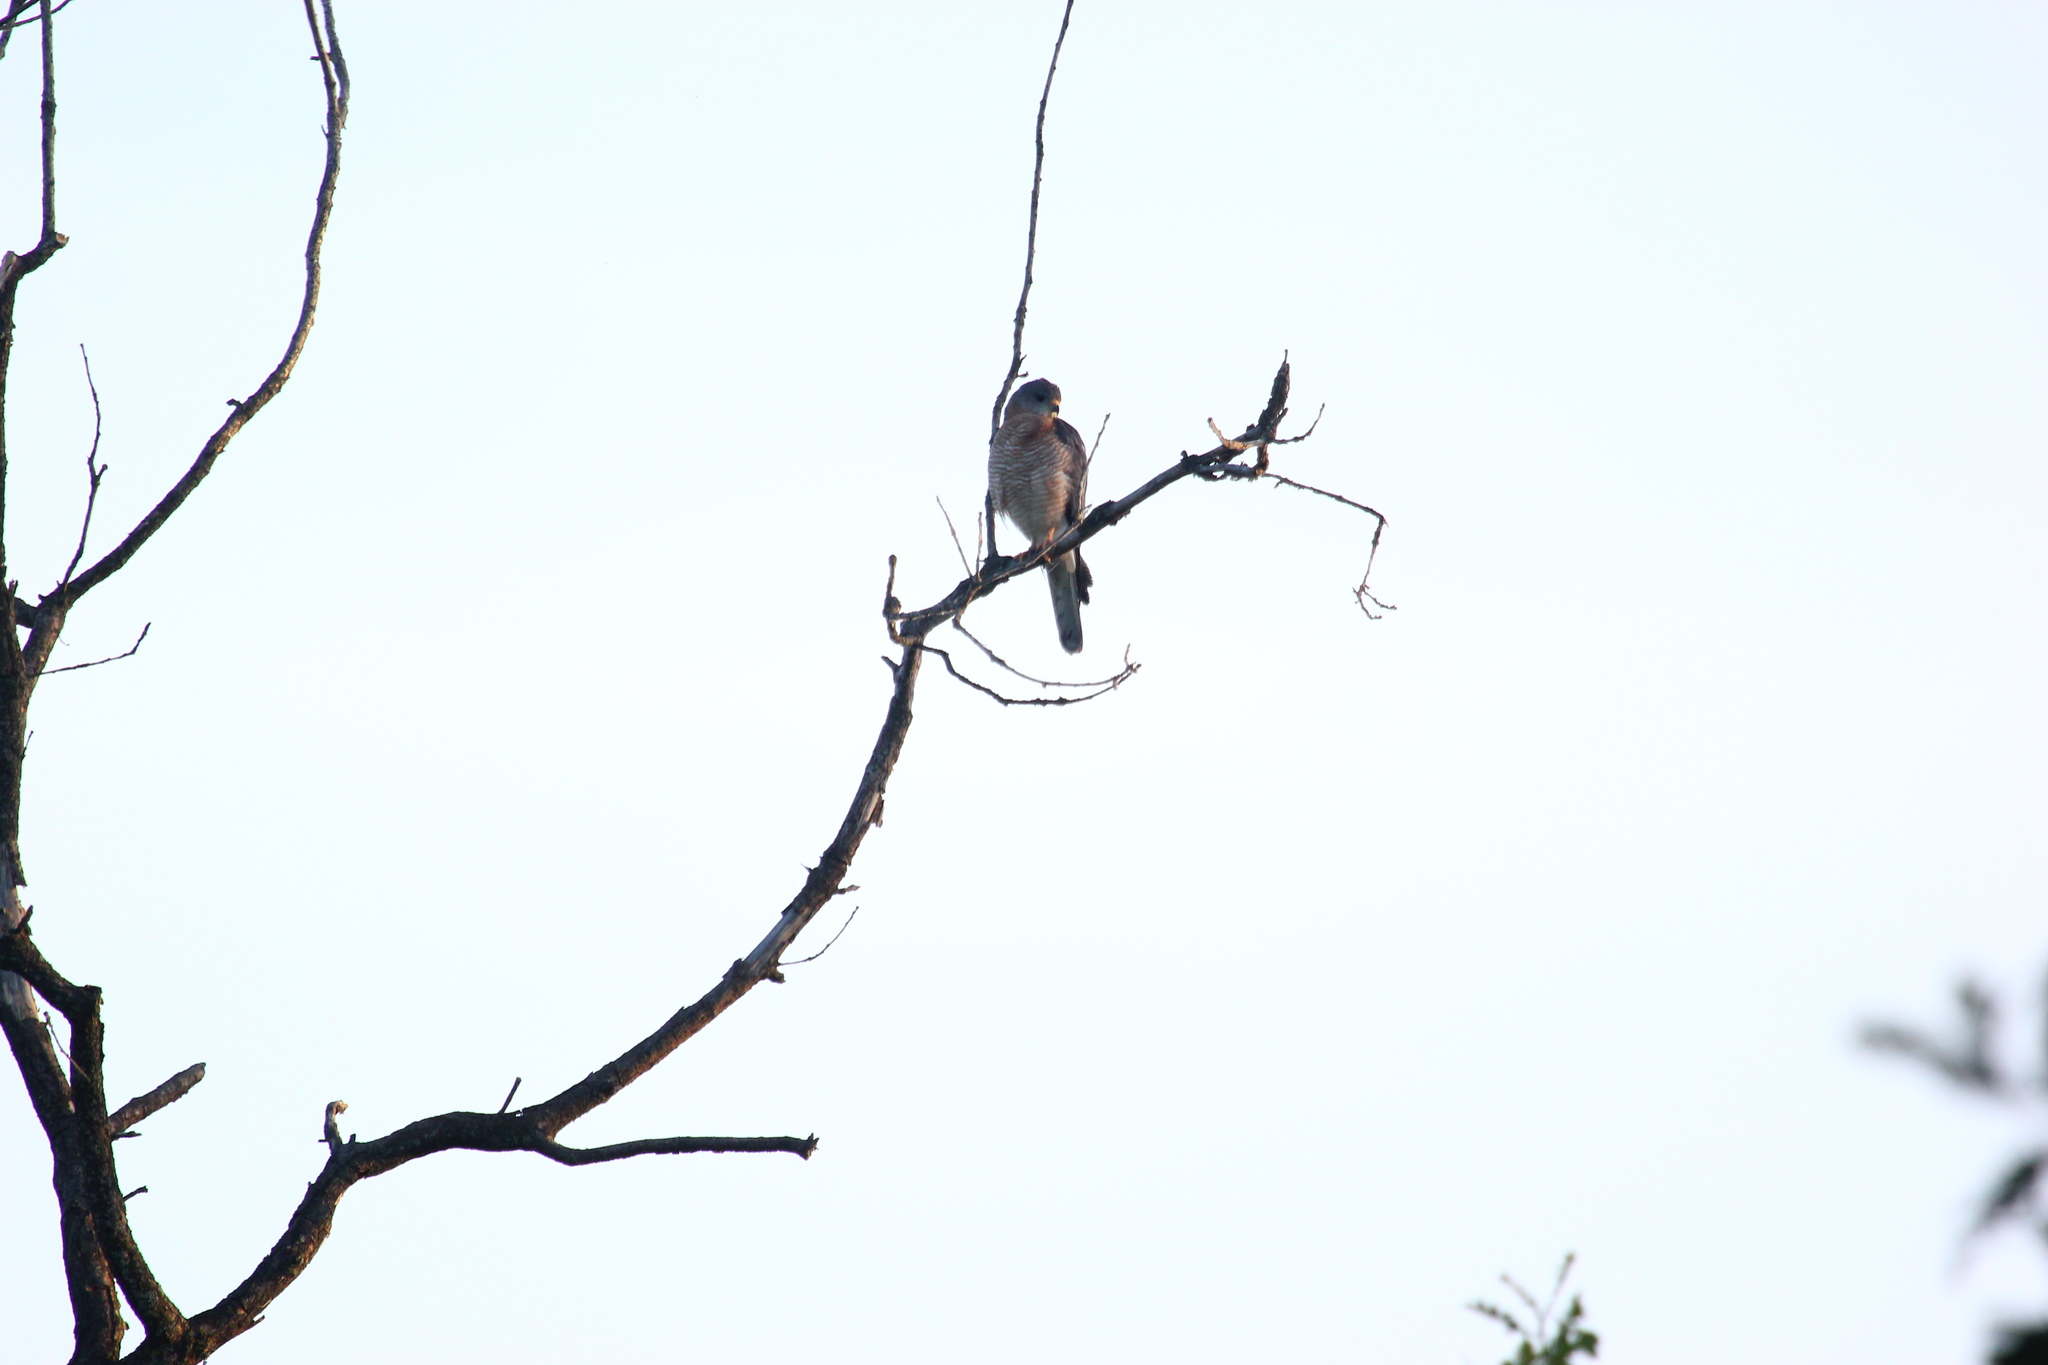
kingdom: Animalia
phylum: Chordata
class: Aves
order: Accipitriformes
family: Accipitridae
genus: Accipiter
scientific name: Accipiter brevipes
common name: Levant sparrowhawk
